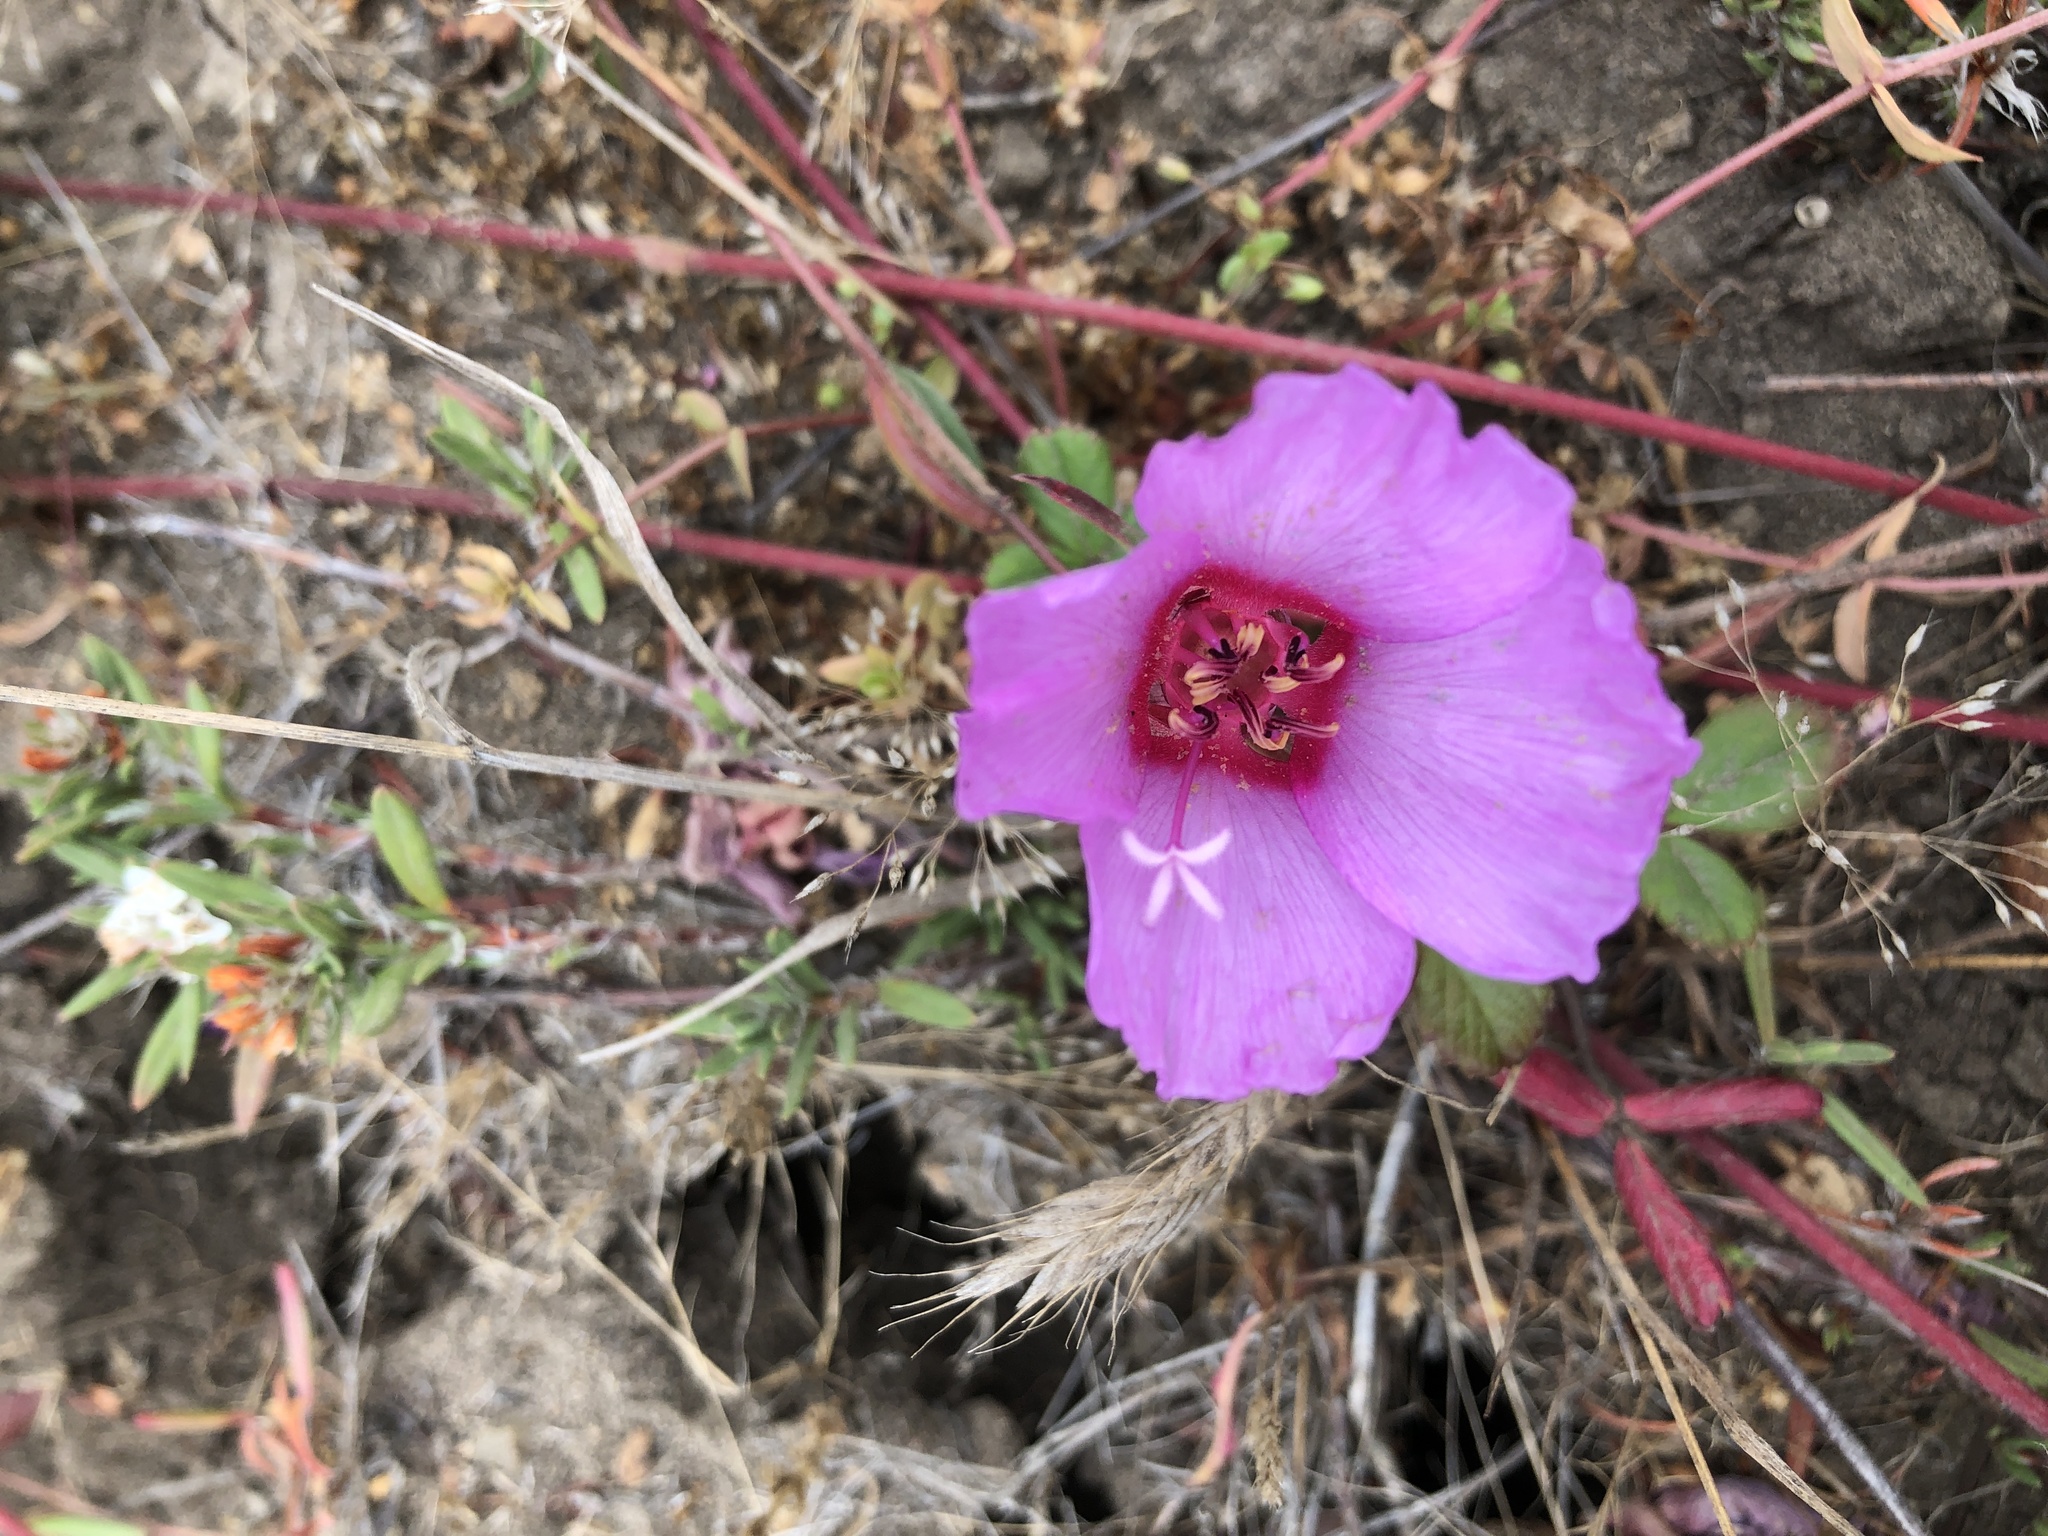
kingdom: Plantae
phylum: Tracheophyta
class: Magnoliopsida
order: Myrtales
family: Onagraceae
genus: Clarkia
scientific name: Clarkia rubicunda
